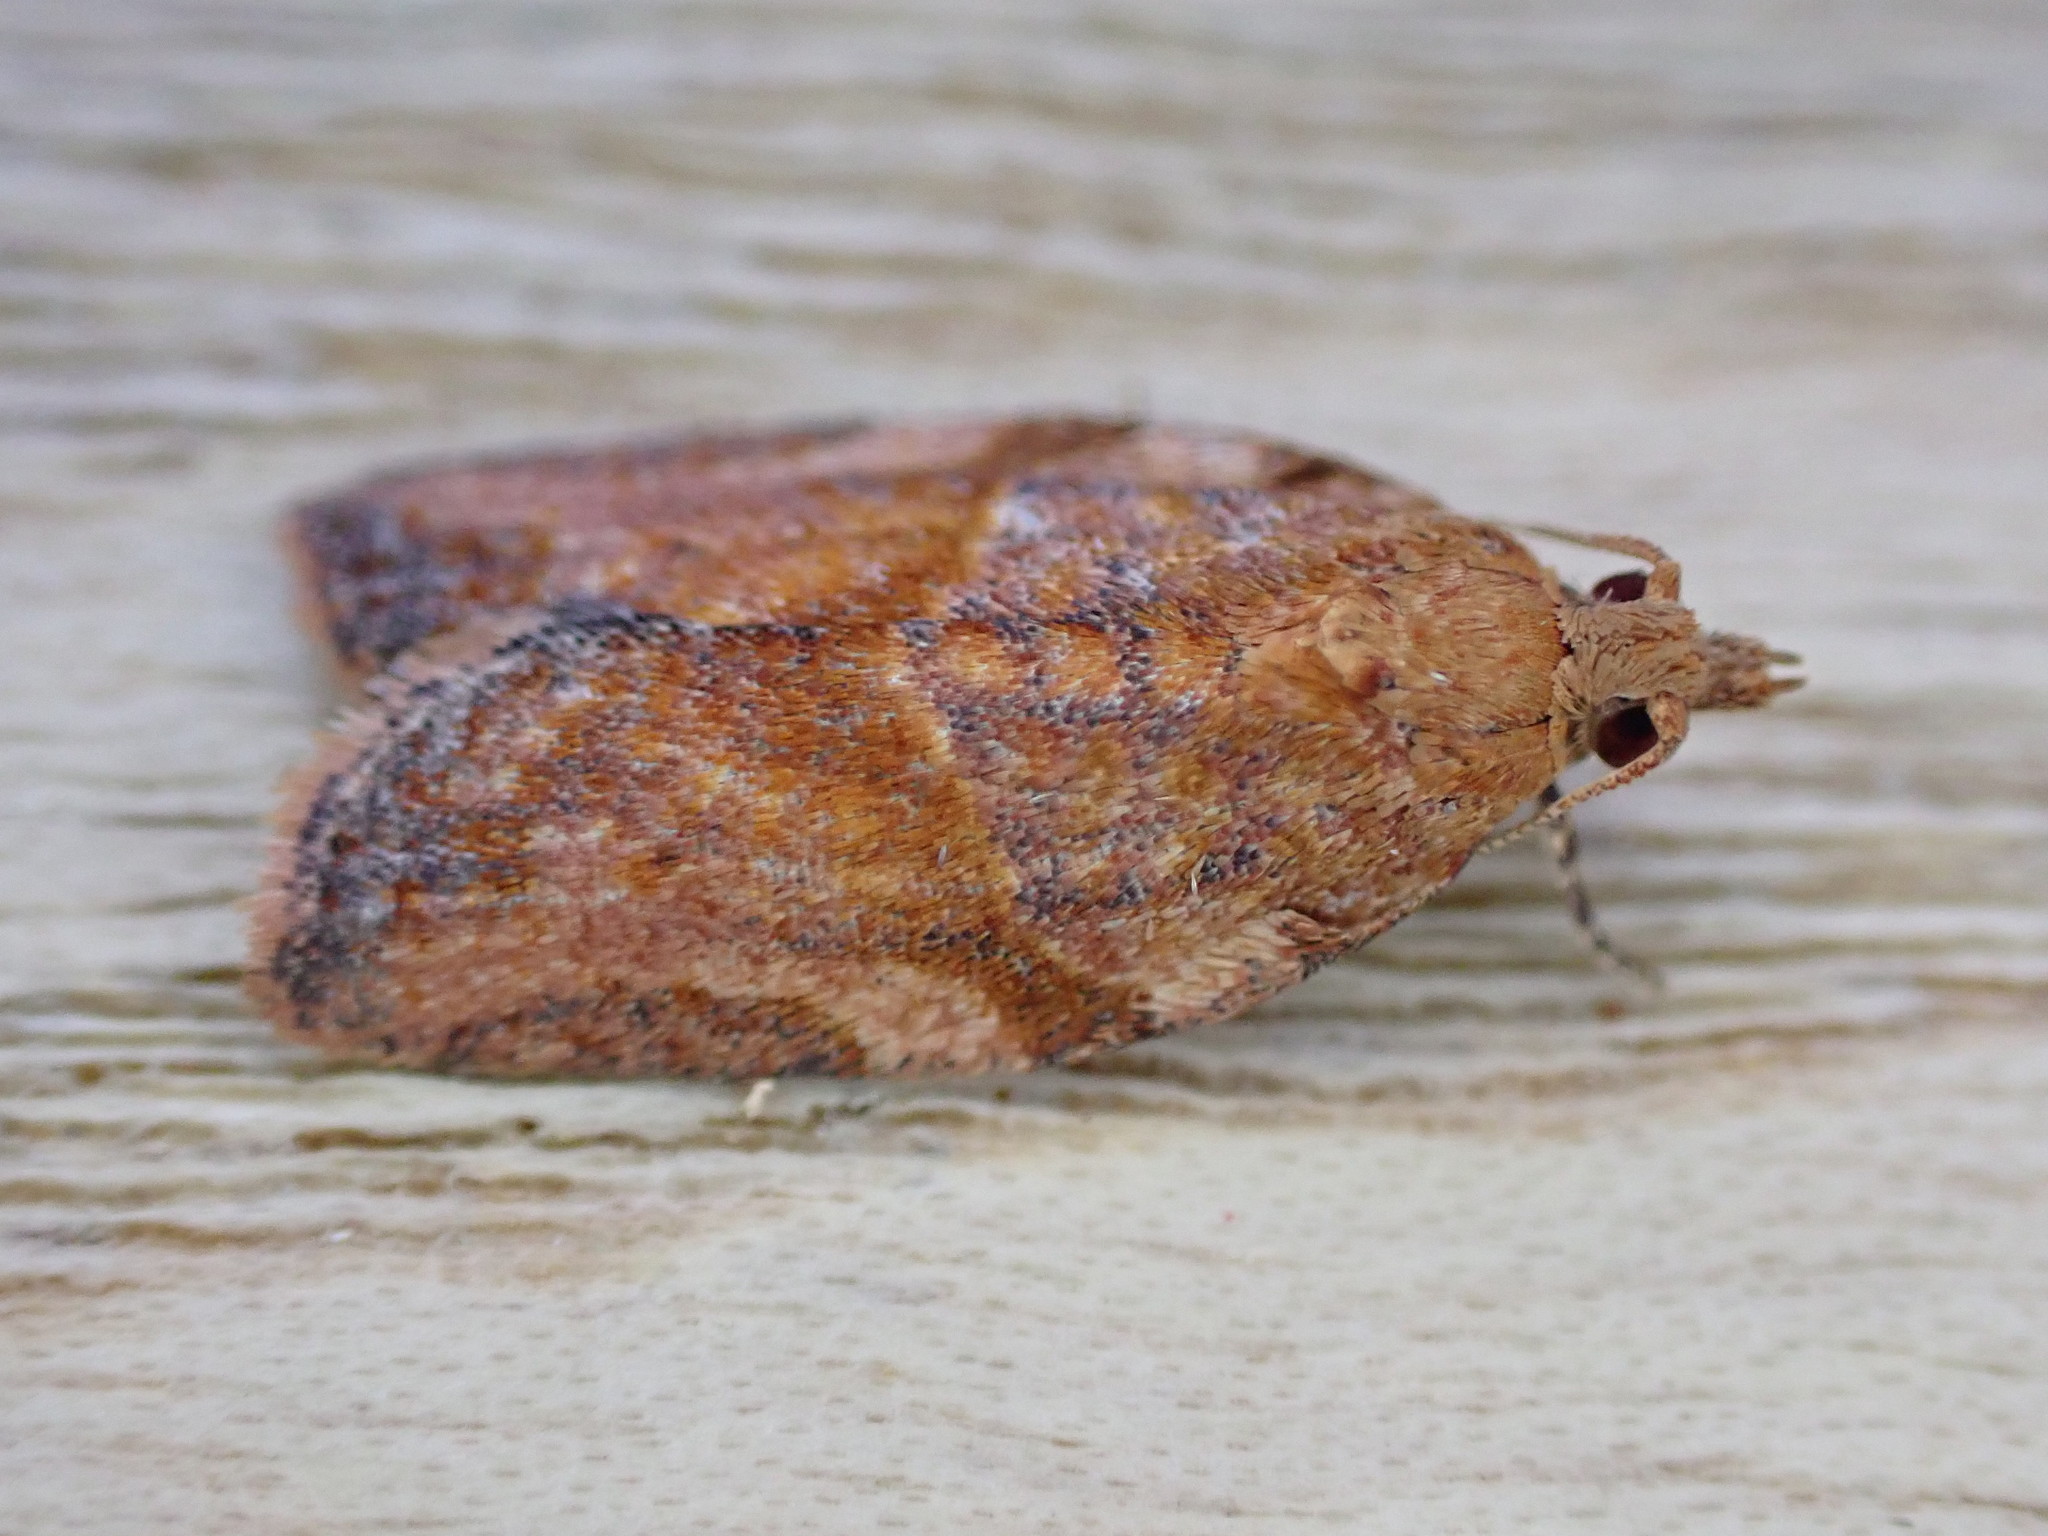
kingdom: Animalia
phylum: Arthropoda
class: Insecta
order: Lepidoptera
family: Tortricidae
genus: Epiphyas
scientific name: Epiphyas postvittana
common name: Light brown apple moth
